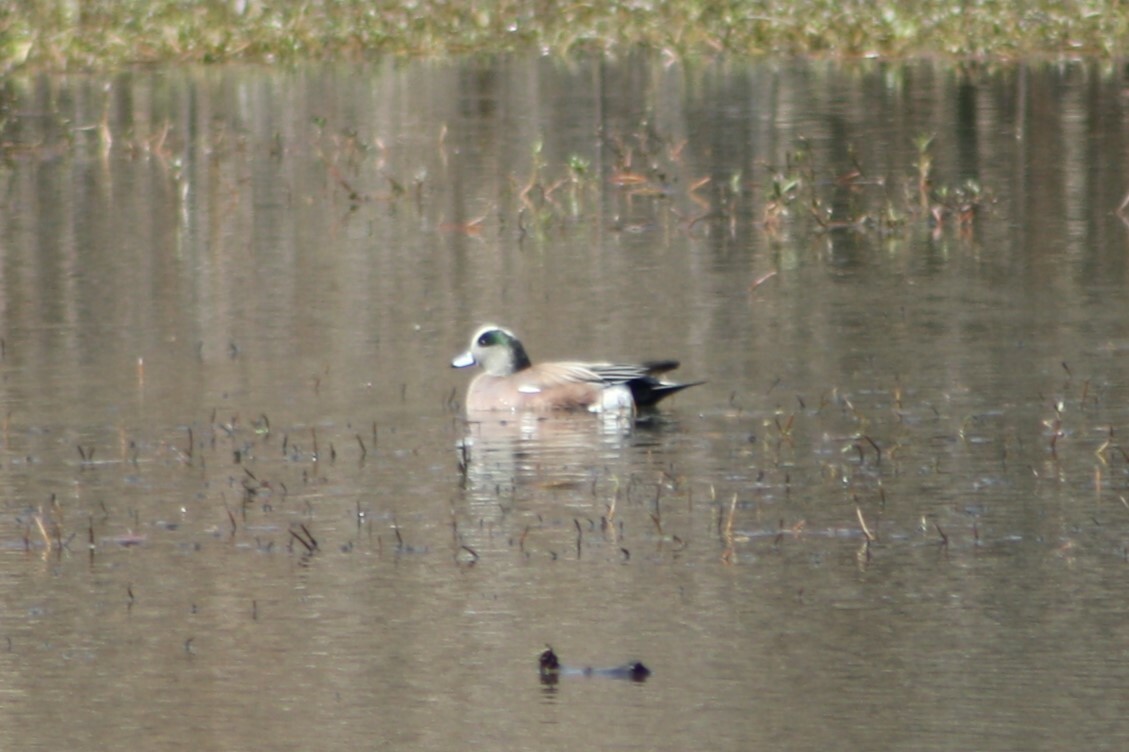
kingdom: Animalia
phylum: Chordata
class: Aves
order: Anseriformes
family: Anatidae
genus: Mareca
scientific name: Mareca americana
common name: American wigeon
